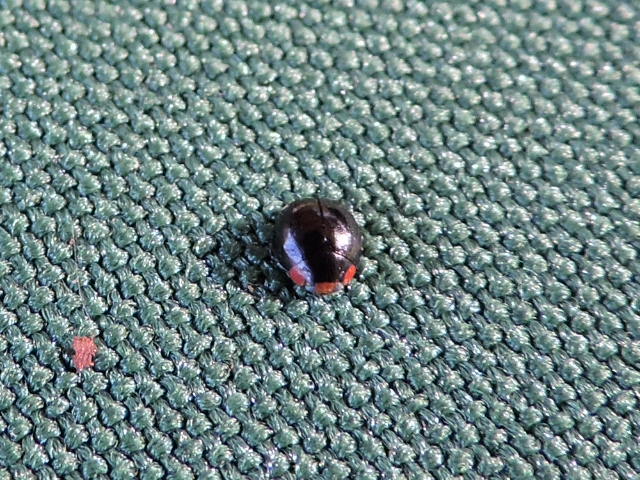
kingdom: Animalia
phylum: Arthropoda
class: Insecta
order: Coleoptera
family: Coccinellidae
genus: Hyperaspis
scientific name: Hyperaspis bigeminata
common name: Bigeminate sigil lady beetle
